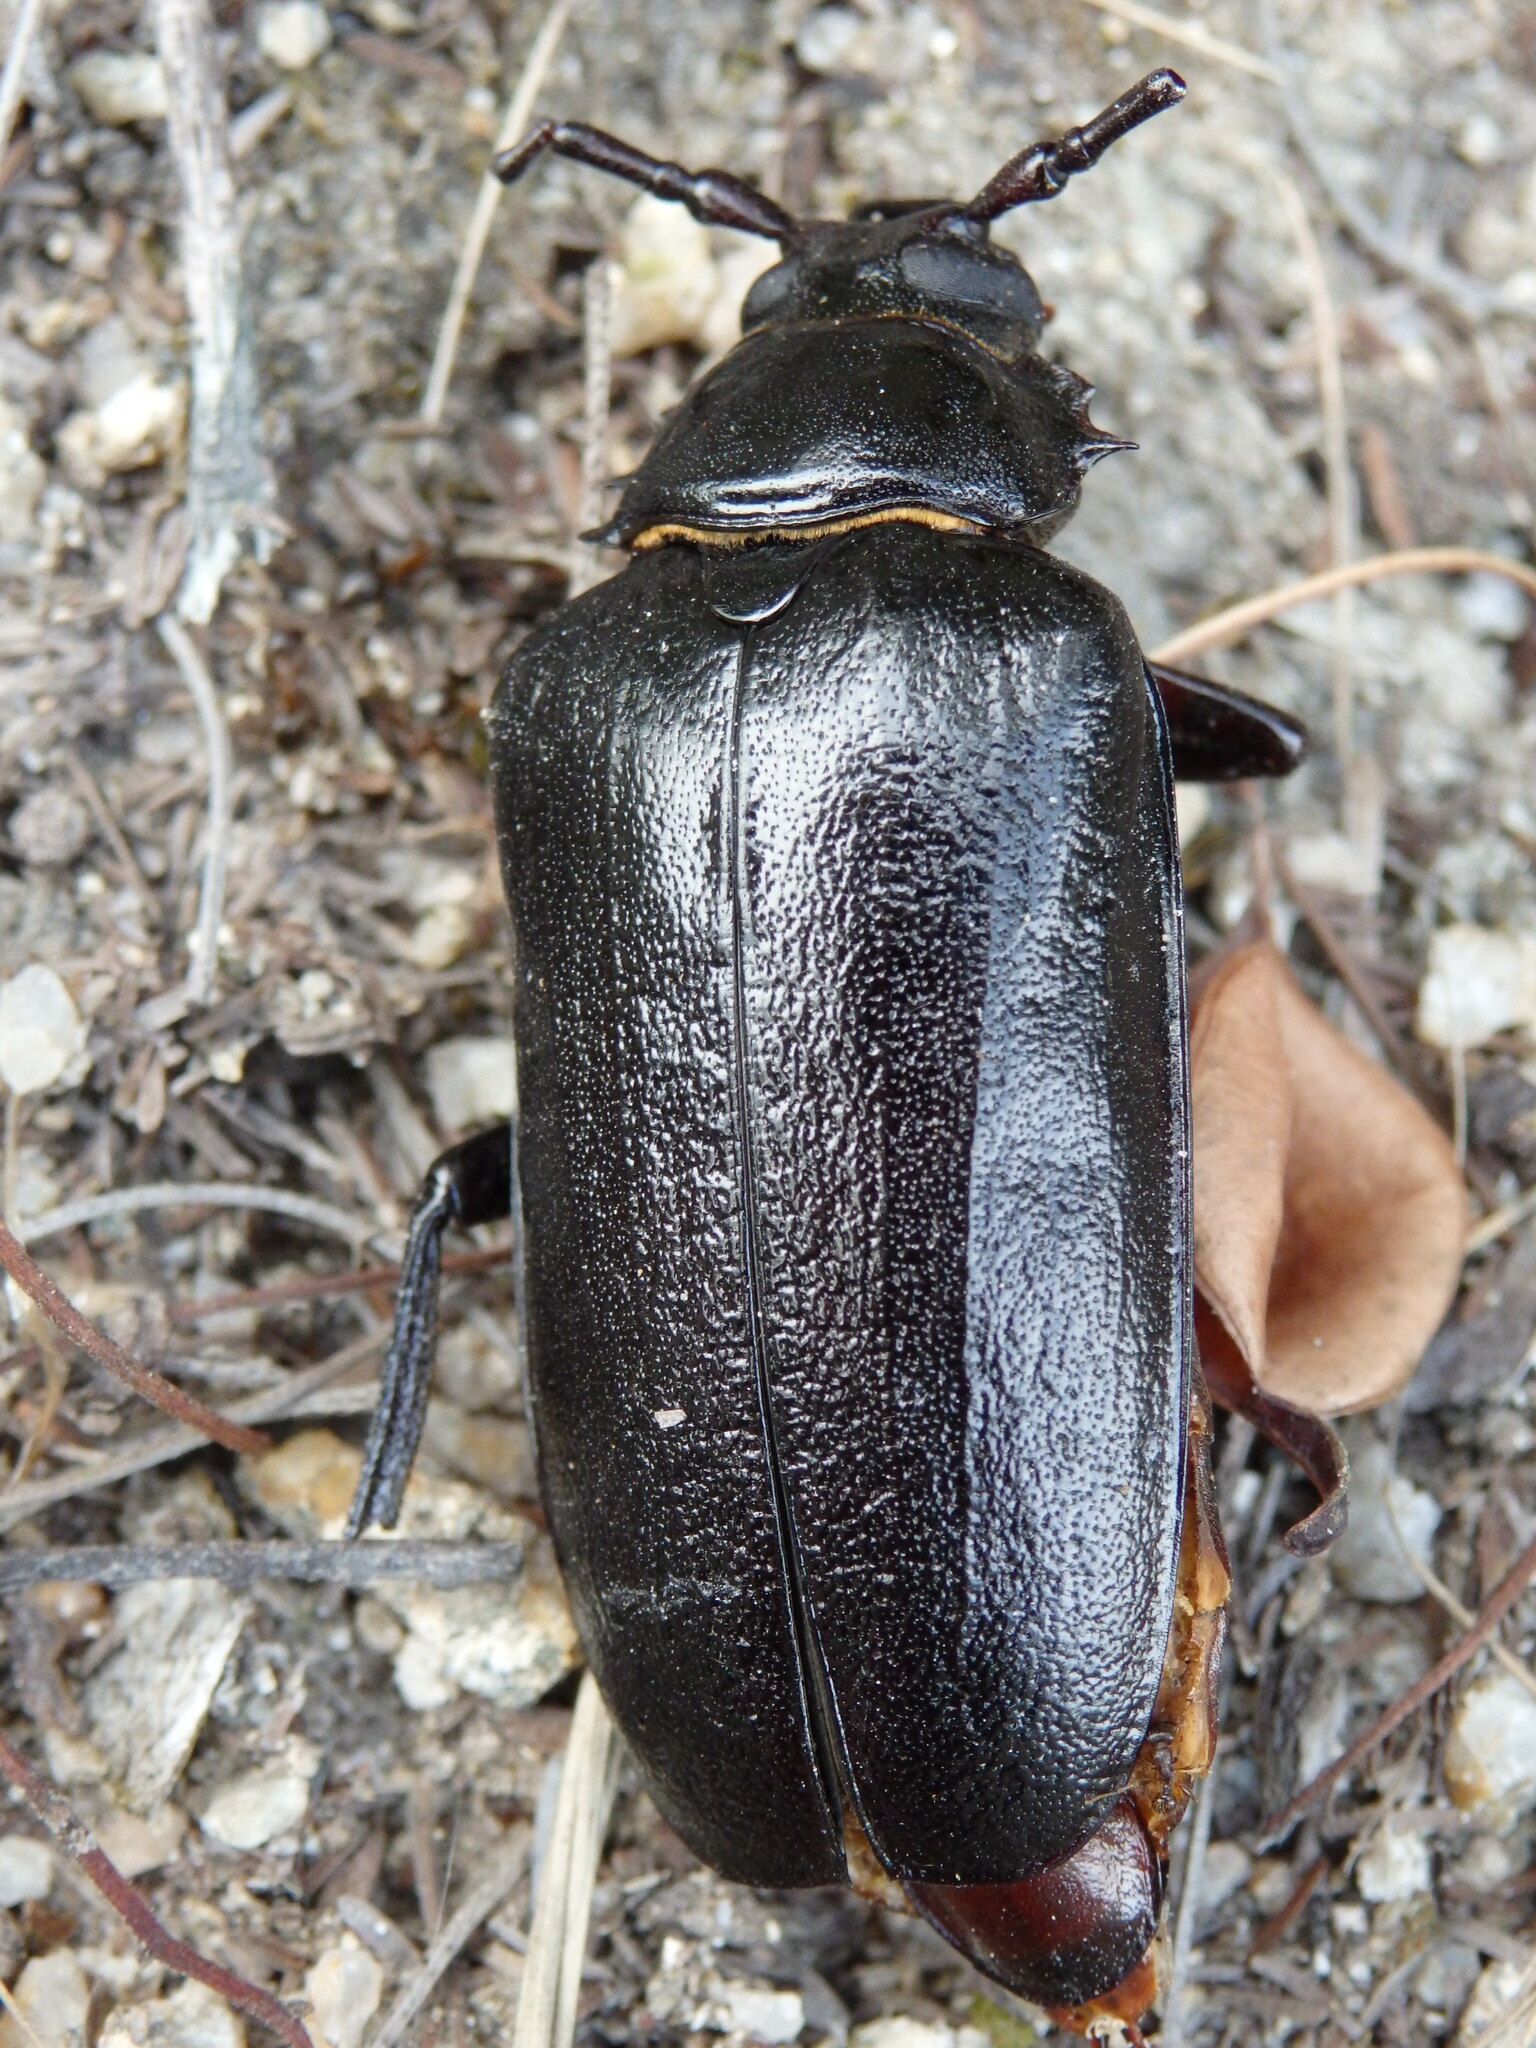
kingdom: Animalia
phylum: Arthropoda
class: Insecta
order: Coleoptera
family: Cerambycidae
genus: Prionus
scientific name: Prionus coriarius
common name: Tanner beetle
